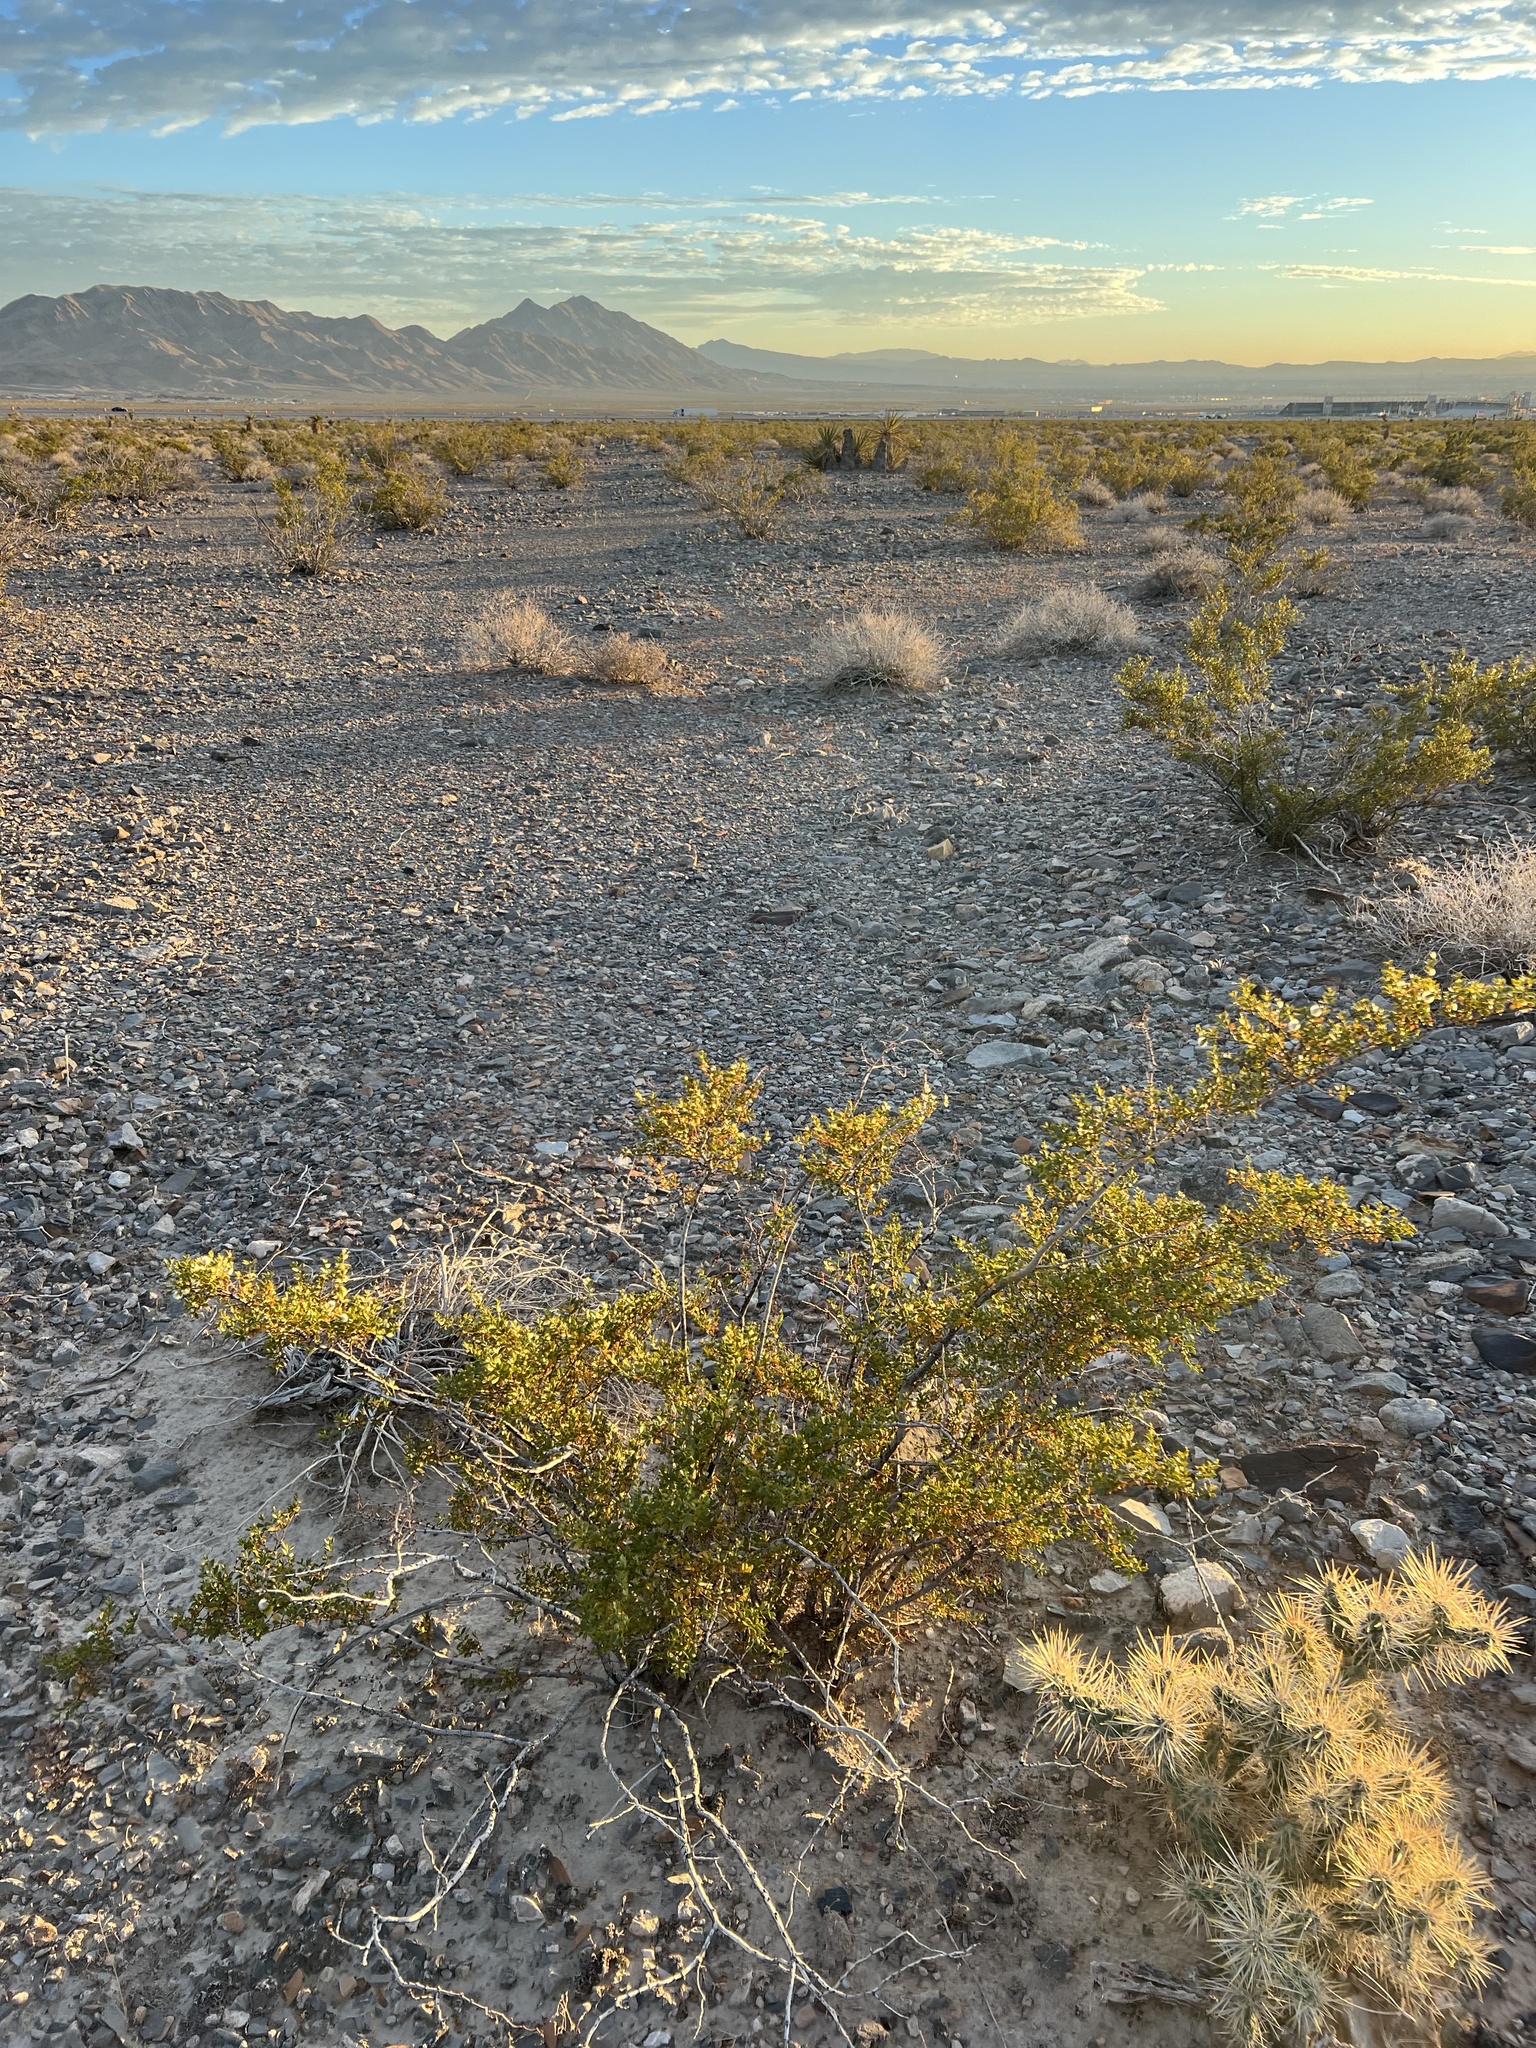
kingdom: Plantae
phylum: Tracheophyta
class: Magnoliopsida
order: Zygophyllales
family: Zygophyllaceae
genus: Larrea
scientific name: Larrea tridentata
